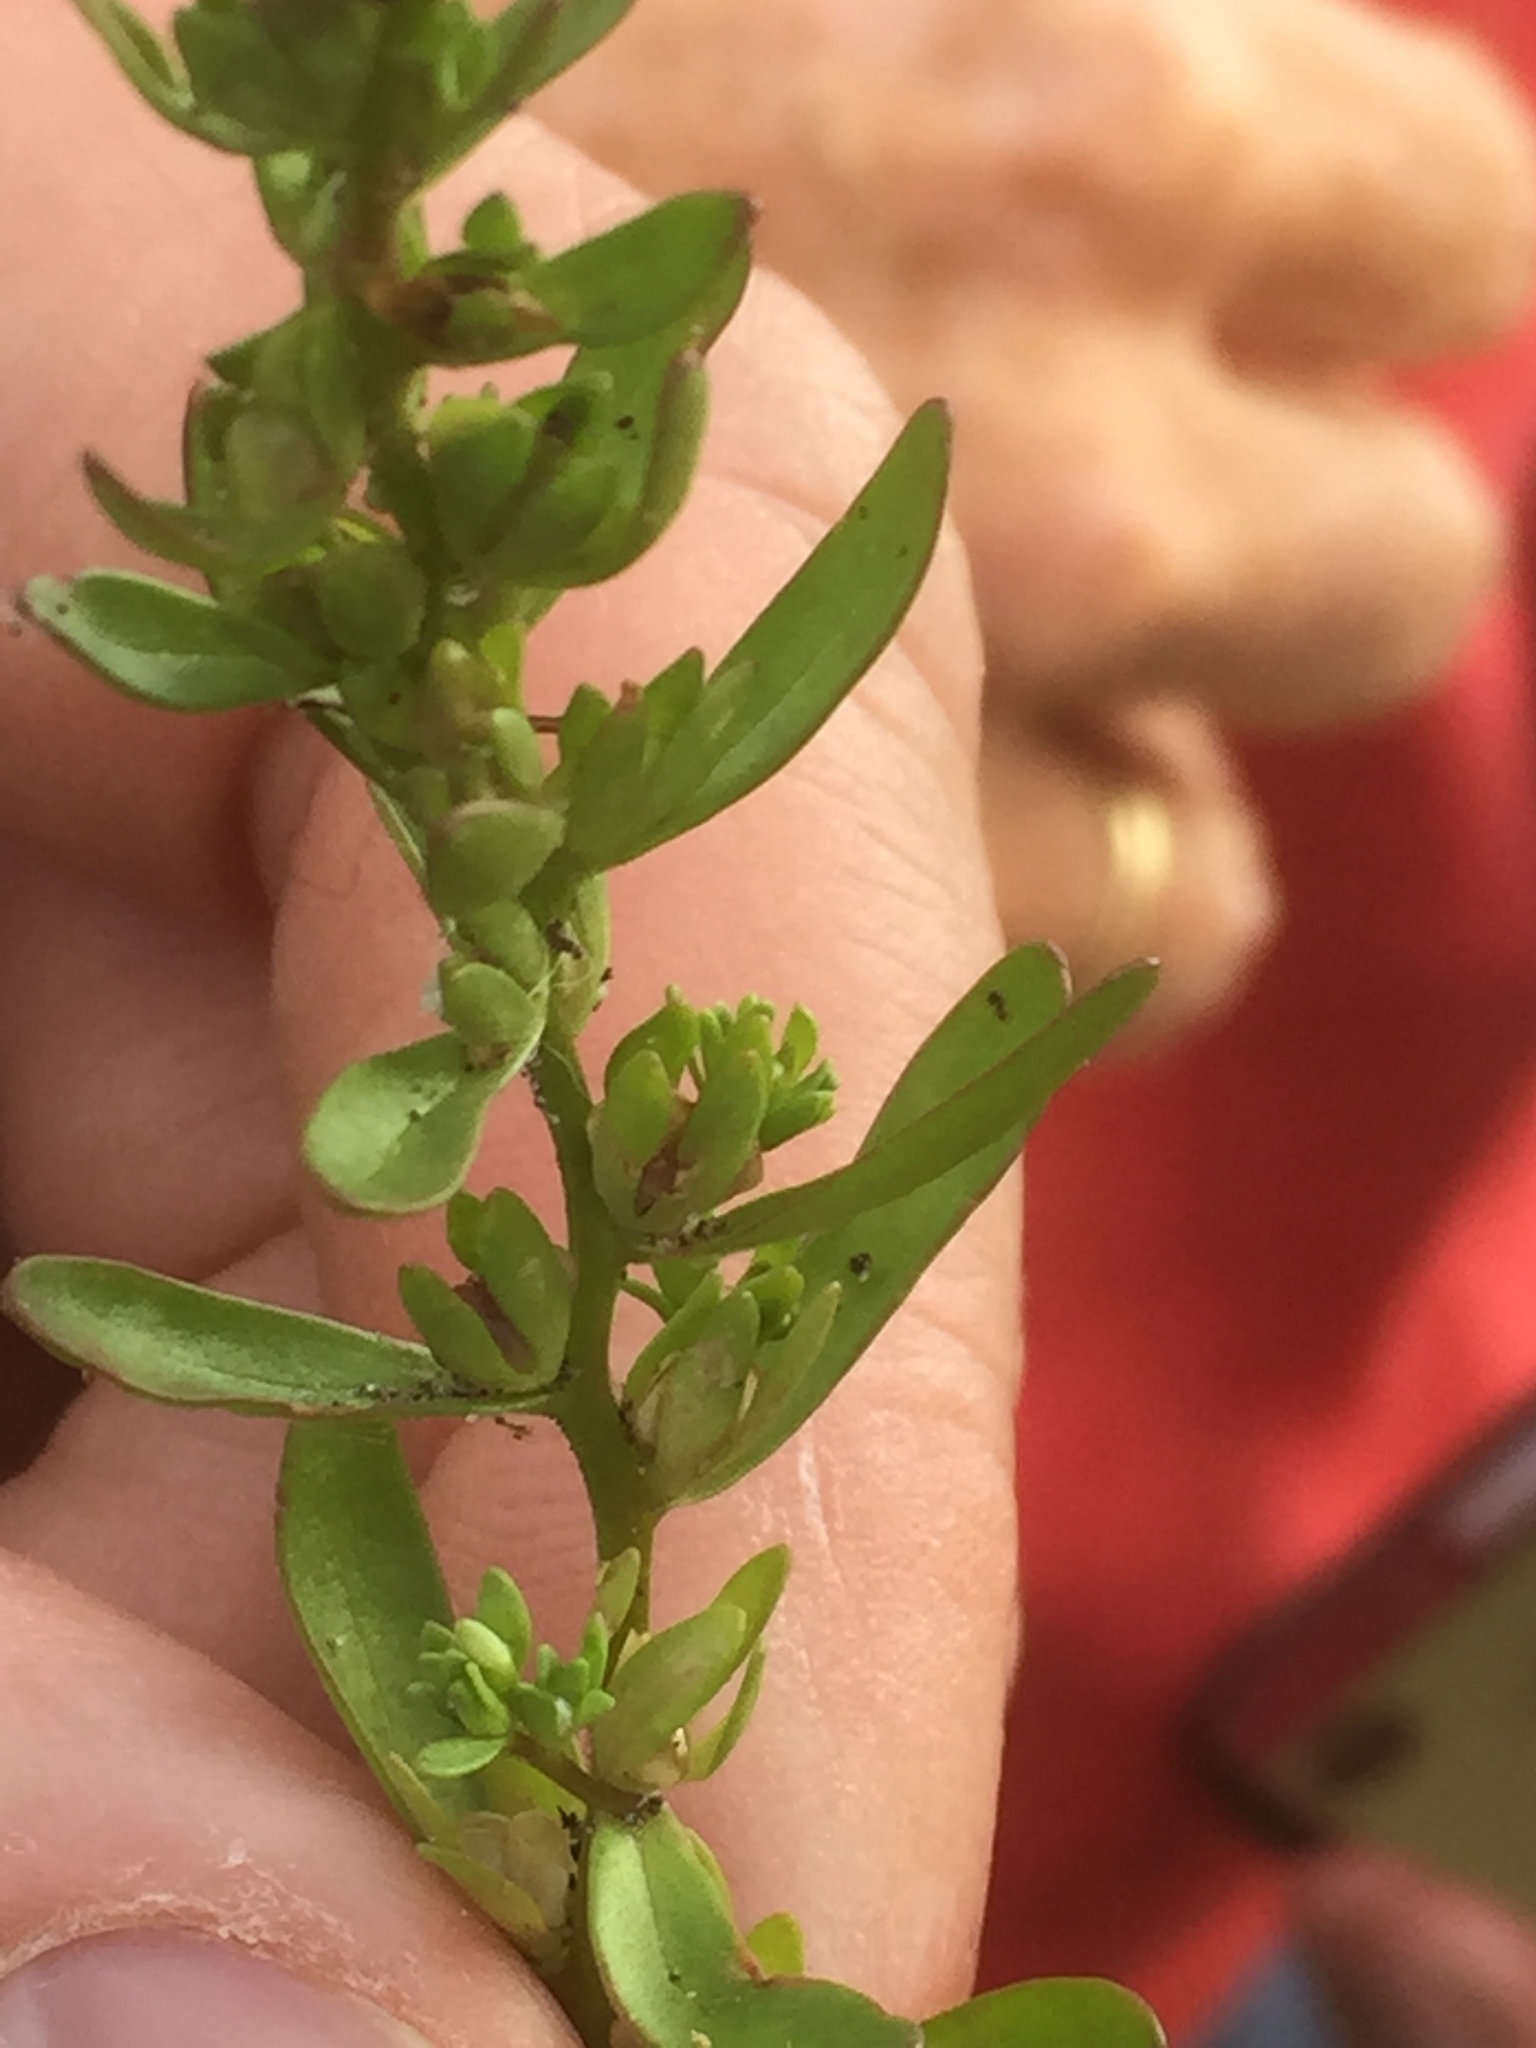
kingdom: Plantae
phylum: Tracheophyta
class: Magnoliopsida
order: Lamiales
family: Plantaginaceae
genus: Veronica
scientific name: Veronica peregrina
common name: Neckweed
